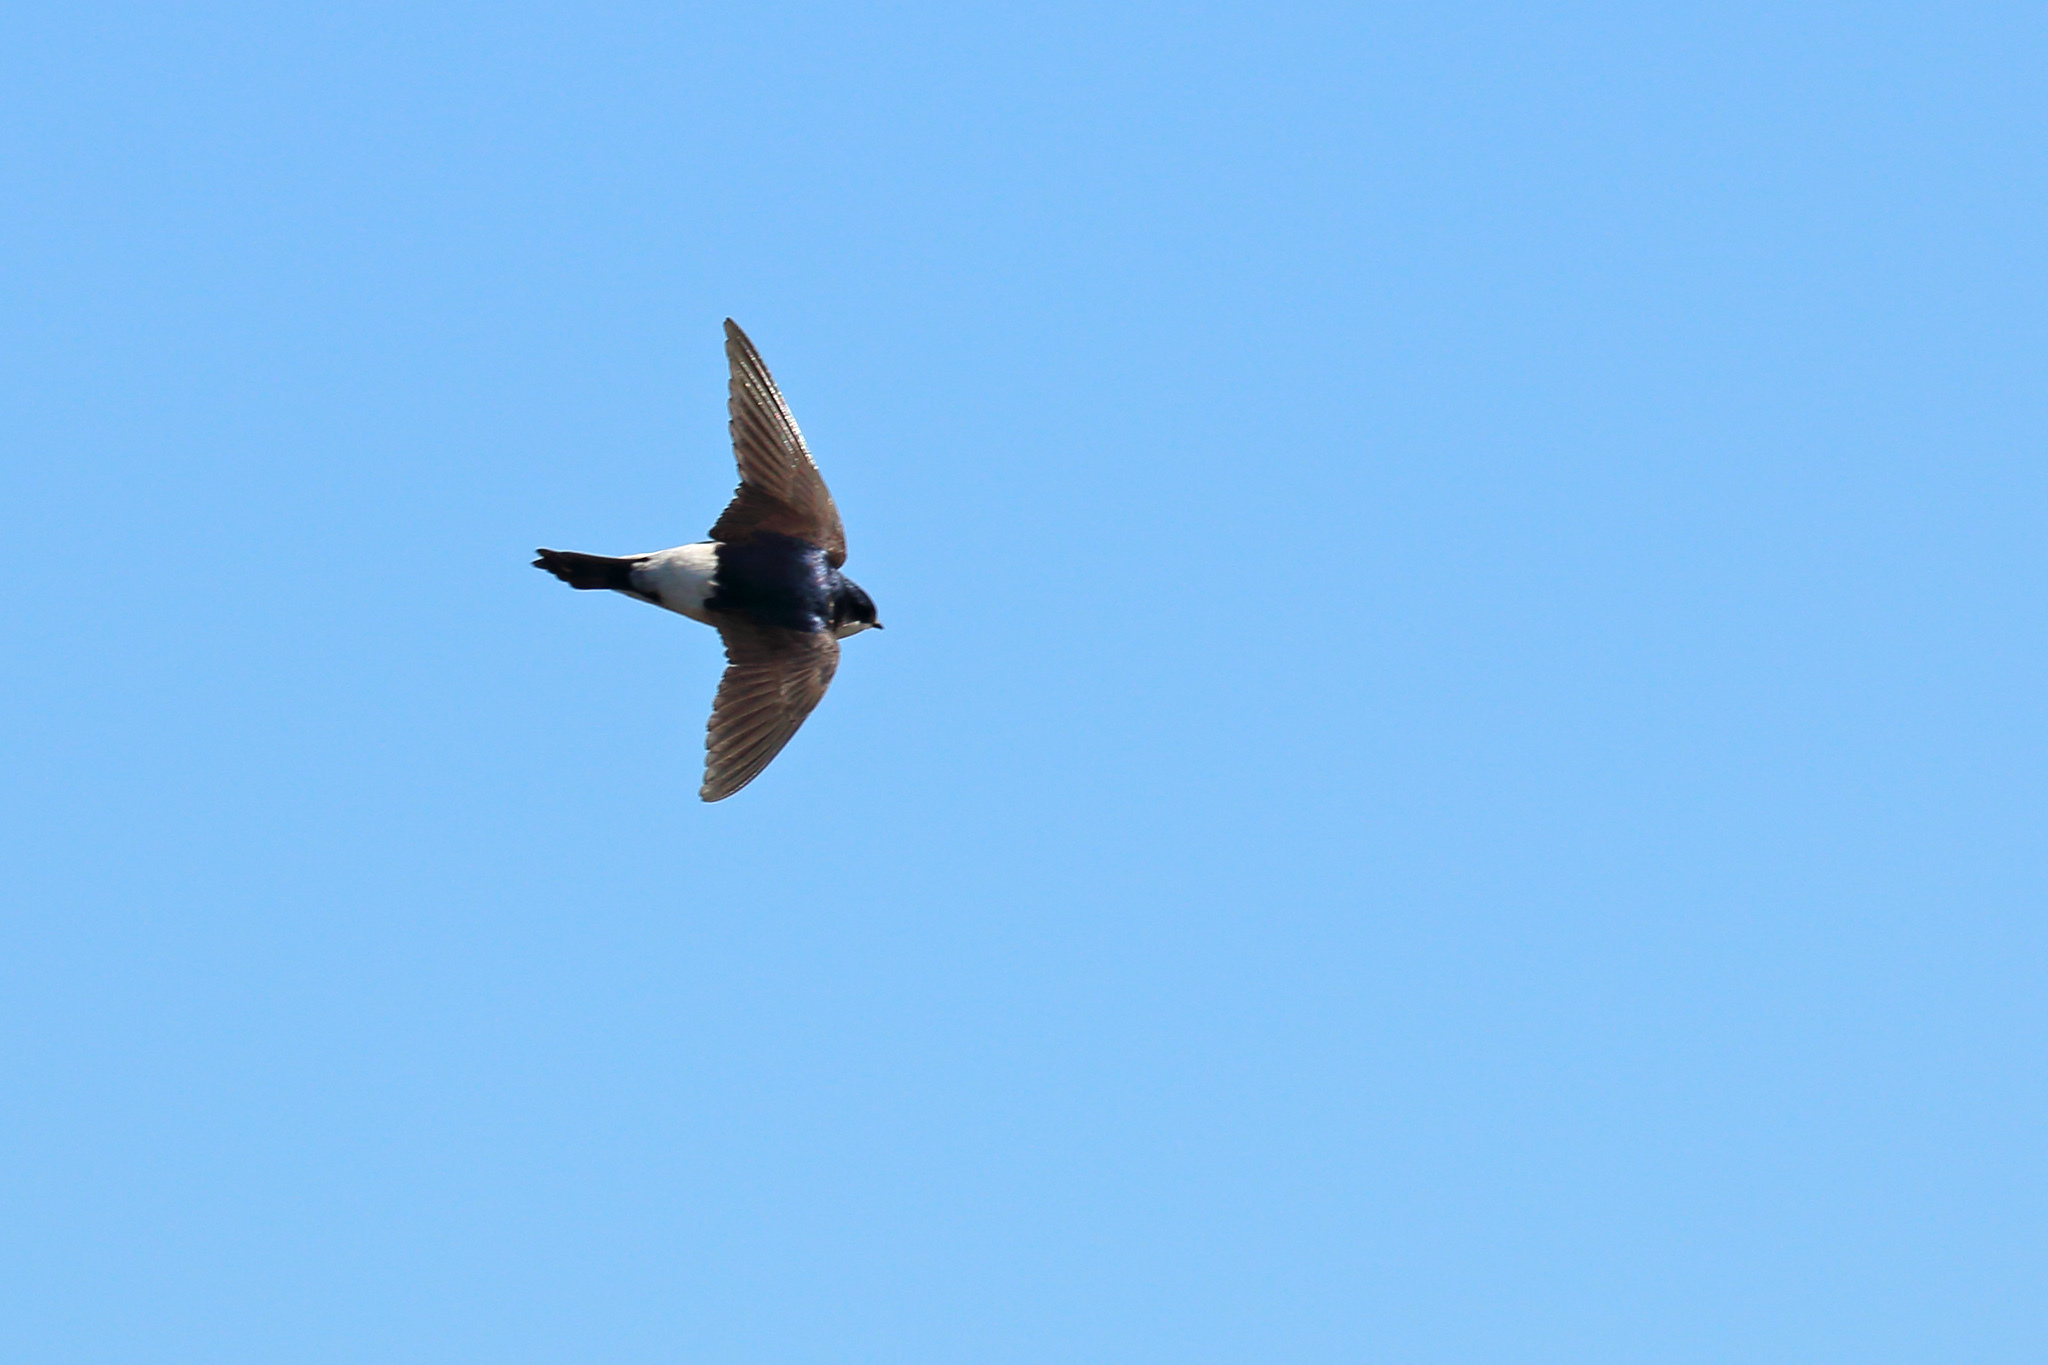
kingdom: Animalia
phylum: Chordata
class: Aves
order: Passeriformes
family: Hirundinidae
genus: Delichon
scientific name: Delichon urbicum
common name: Common house martin
